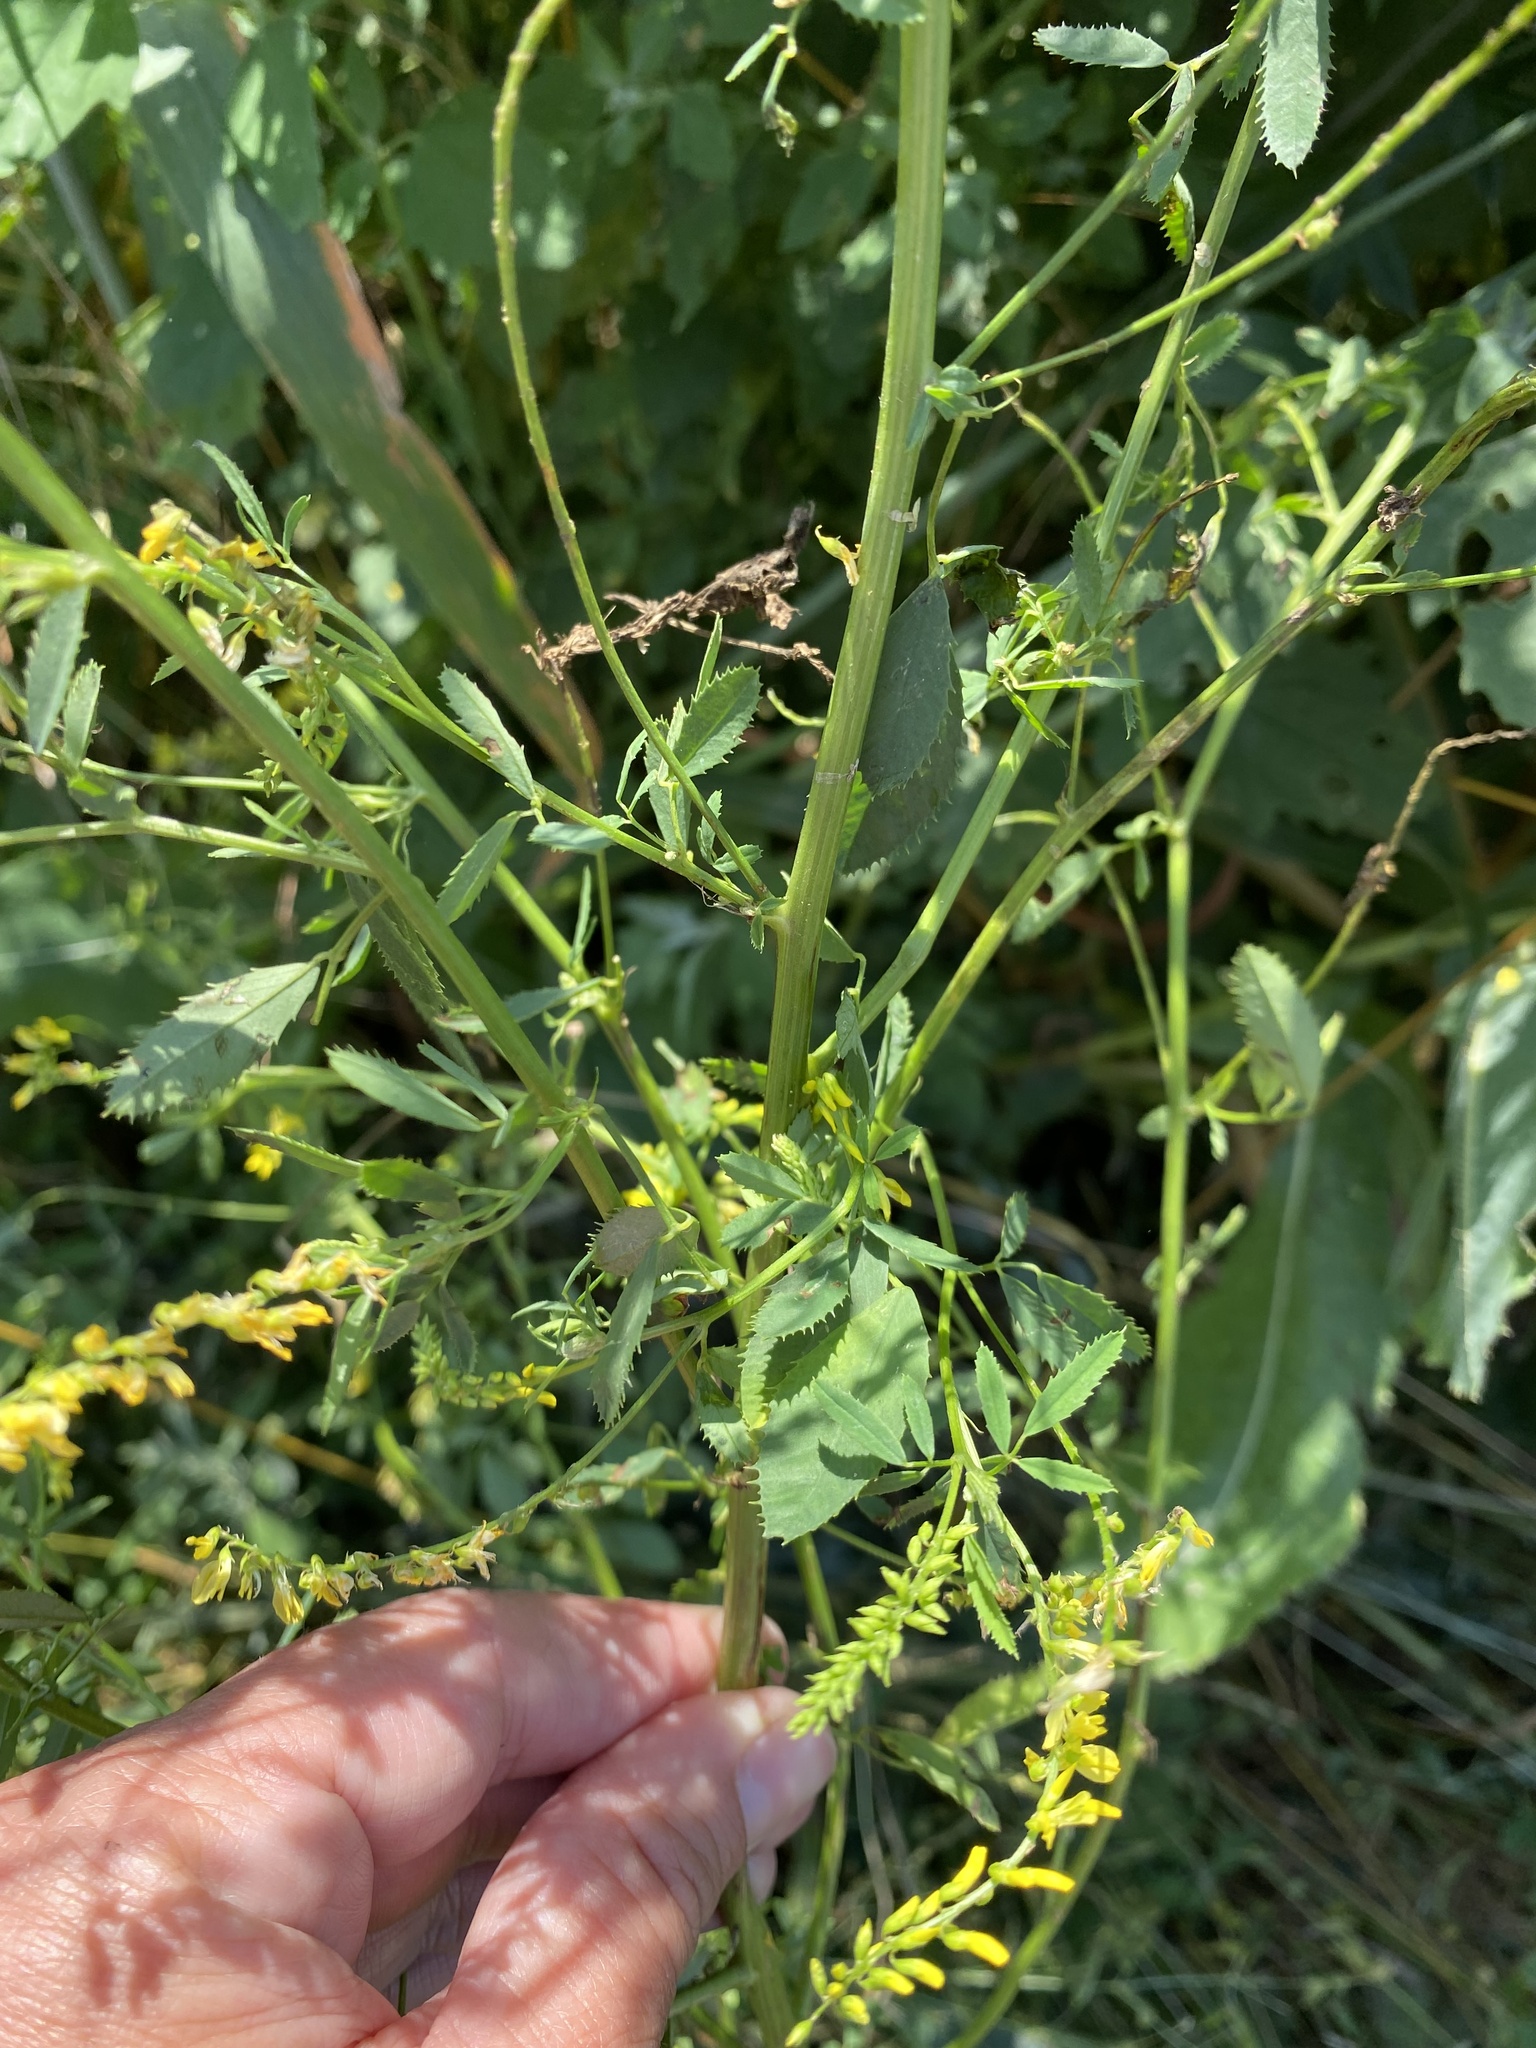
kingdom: Plantae
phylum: Tracheophyta
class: Magnoliopsida
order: Fabales
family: Fabaceae
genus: Melilotus
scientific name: Melilotus officinalis
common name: Sweetclover
